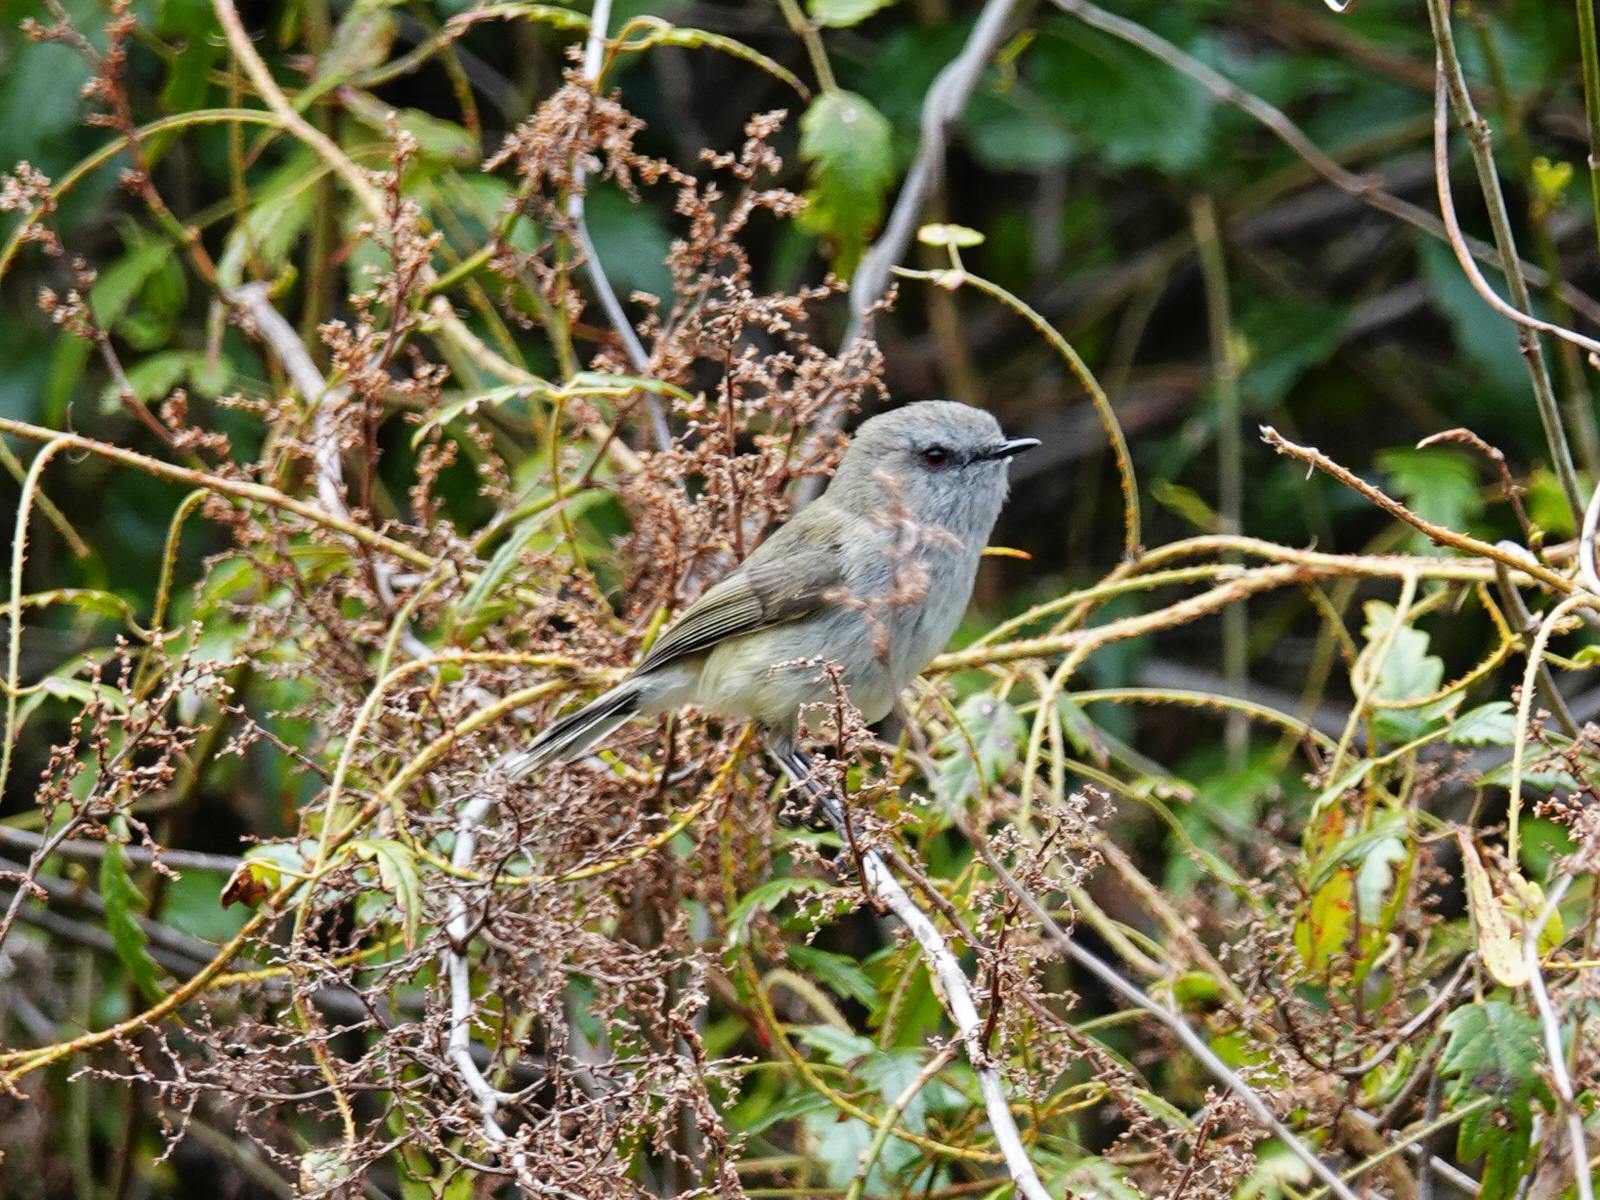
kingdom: Animalia
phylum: Chordata
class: Aves
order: Passeriformes
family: Acanthizidae
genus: Gerygone
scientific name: Gerygone igata
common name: Grey gerygone
